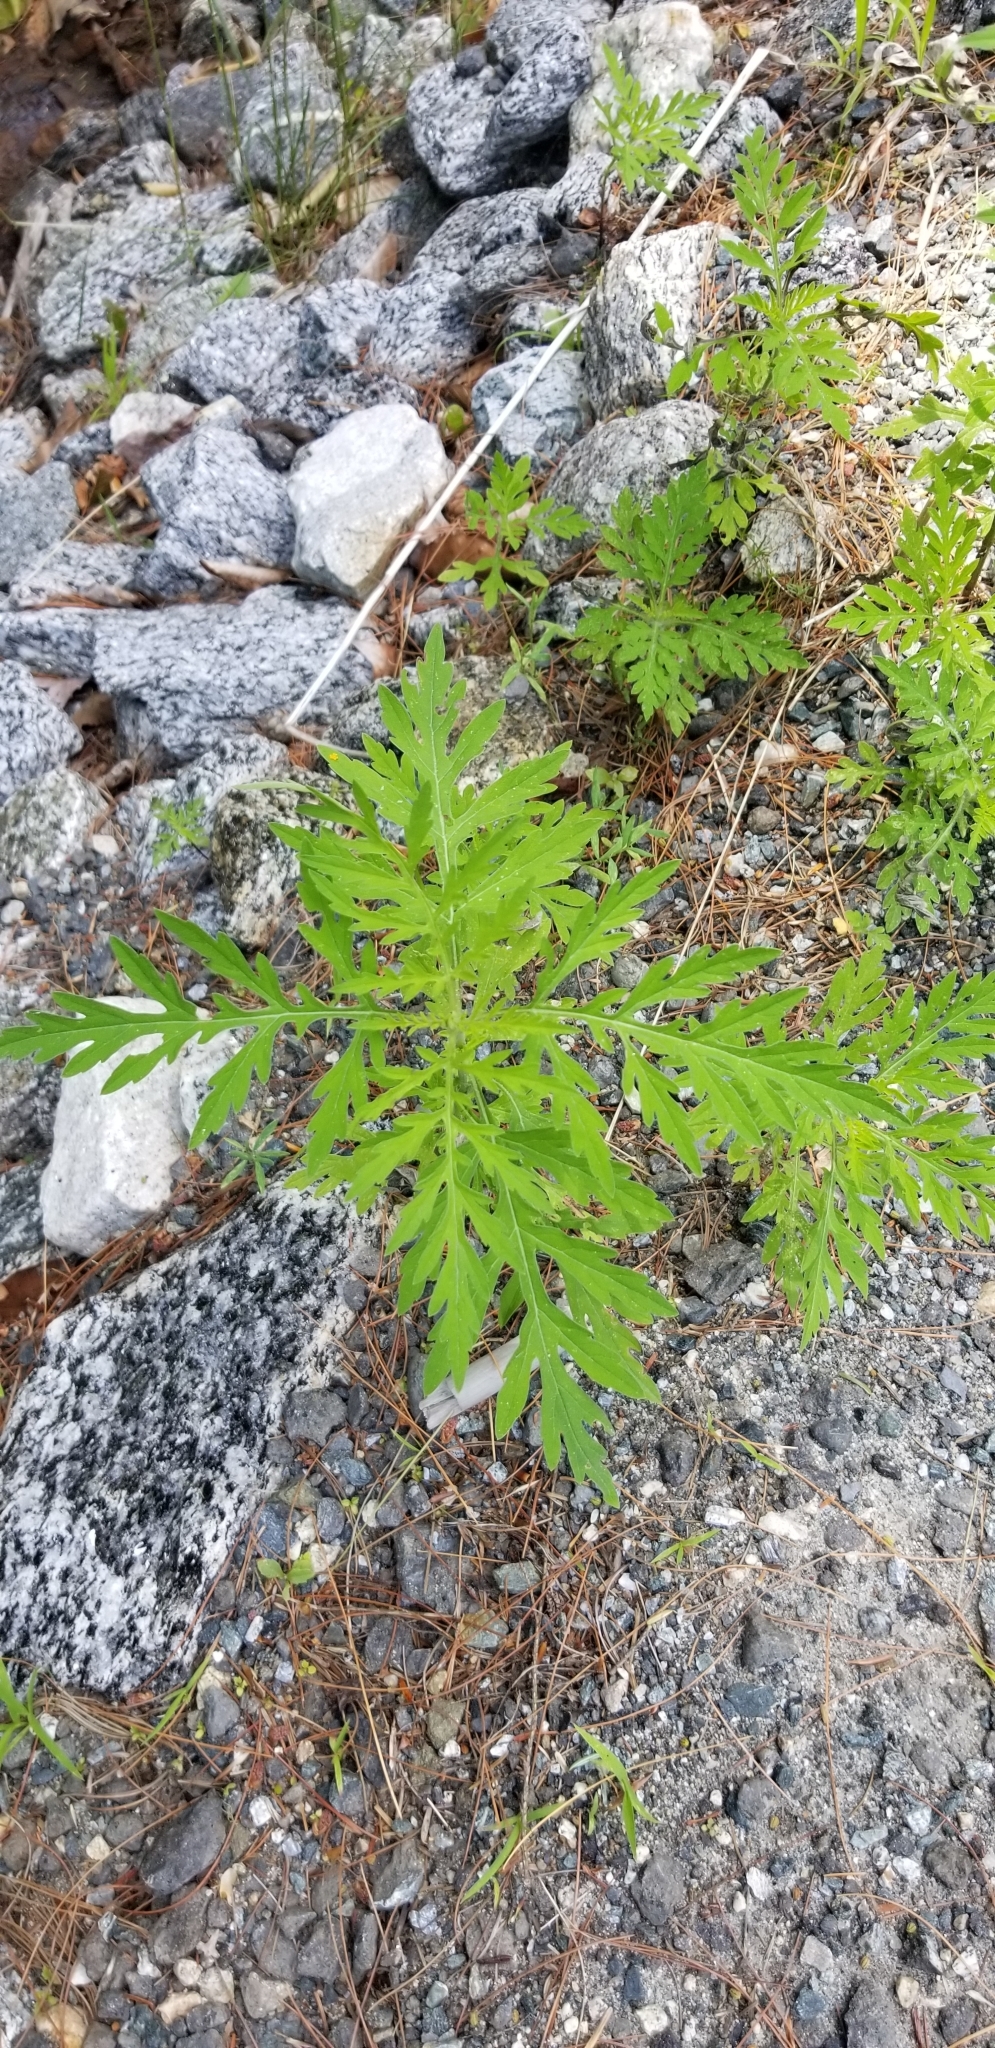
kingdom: Plantae
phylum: Tracheophyta
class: Magnoliopsida
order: Asterales
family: Asteraceae
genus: Ambrosia
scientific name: Ambrosia artemisiifolia
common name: Annual ragweed
